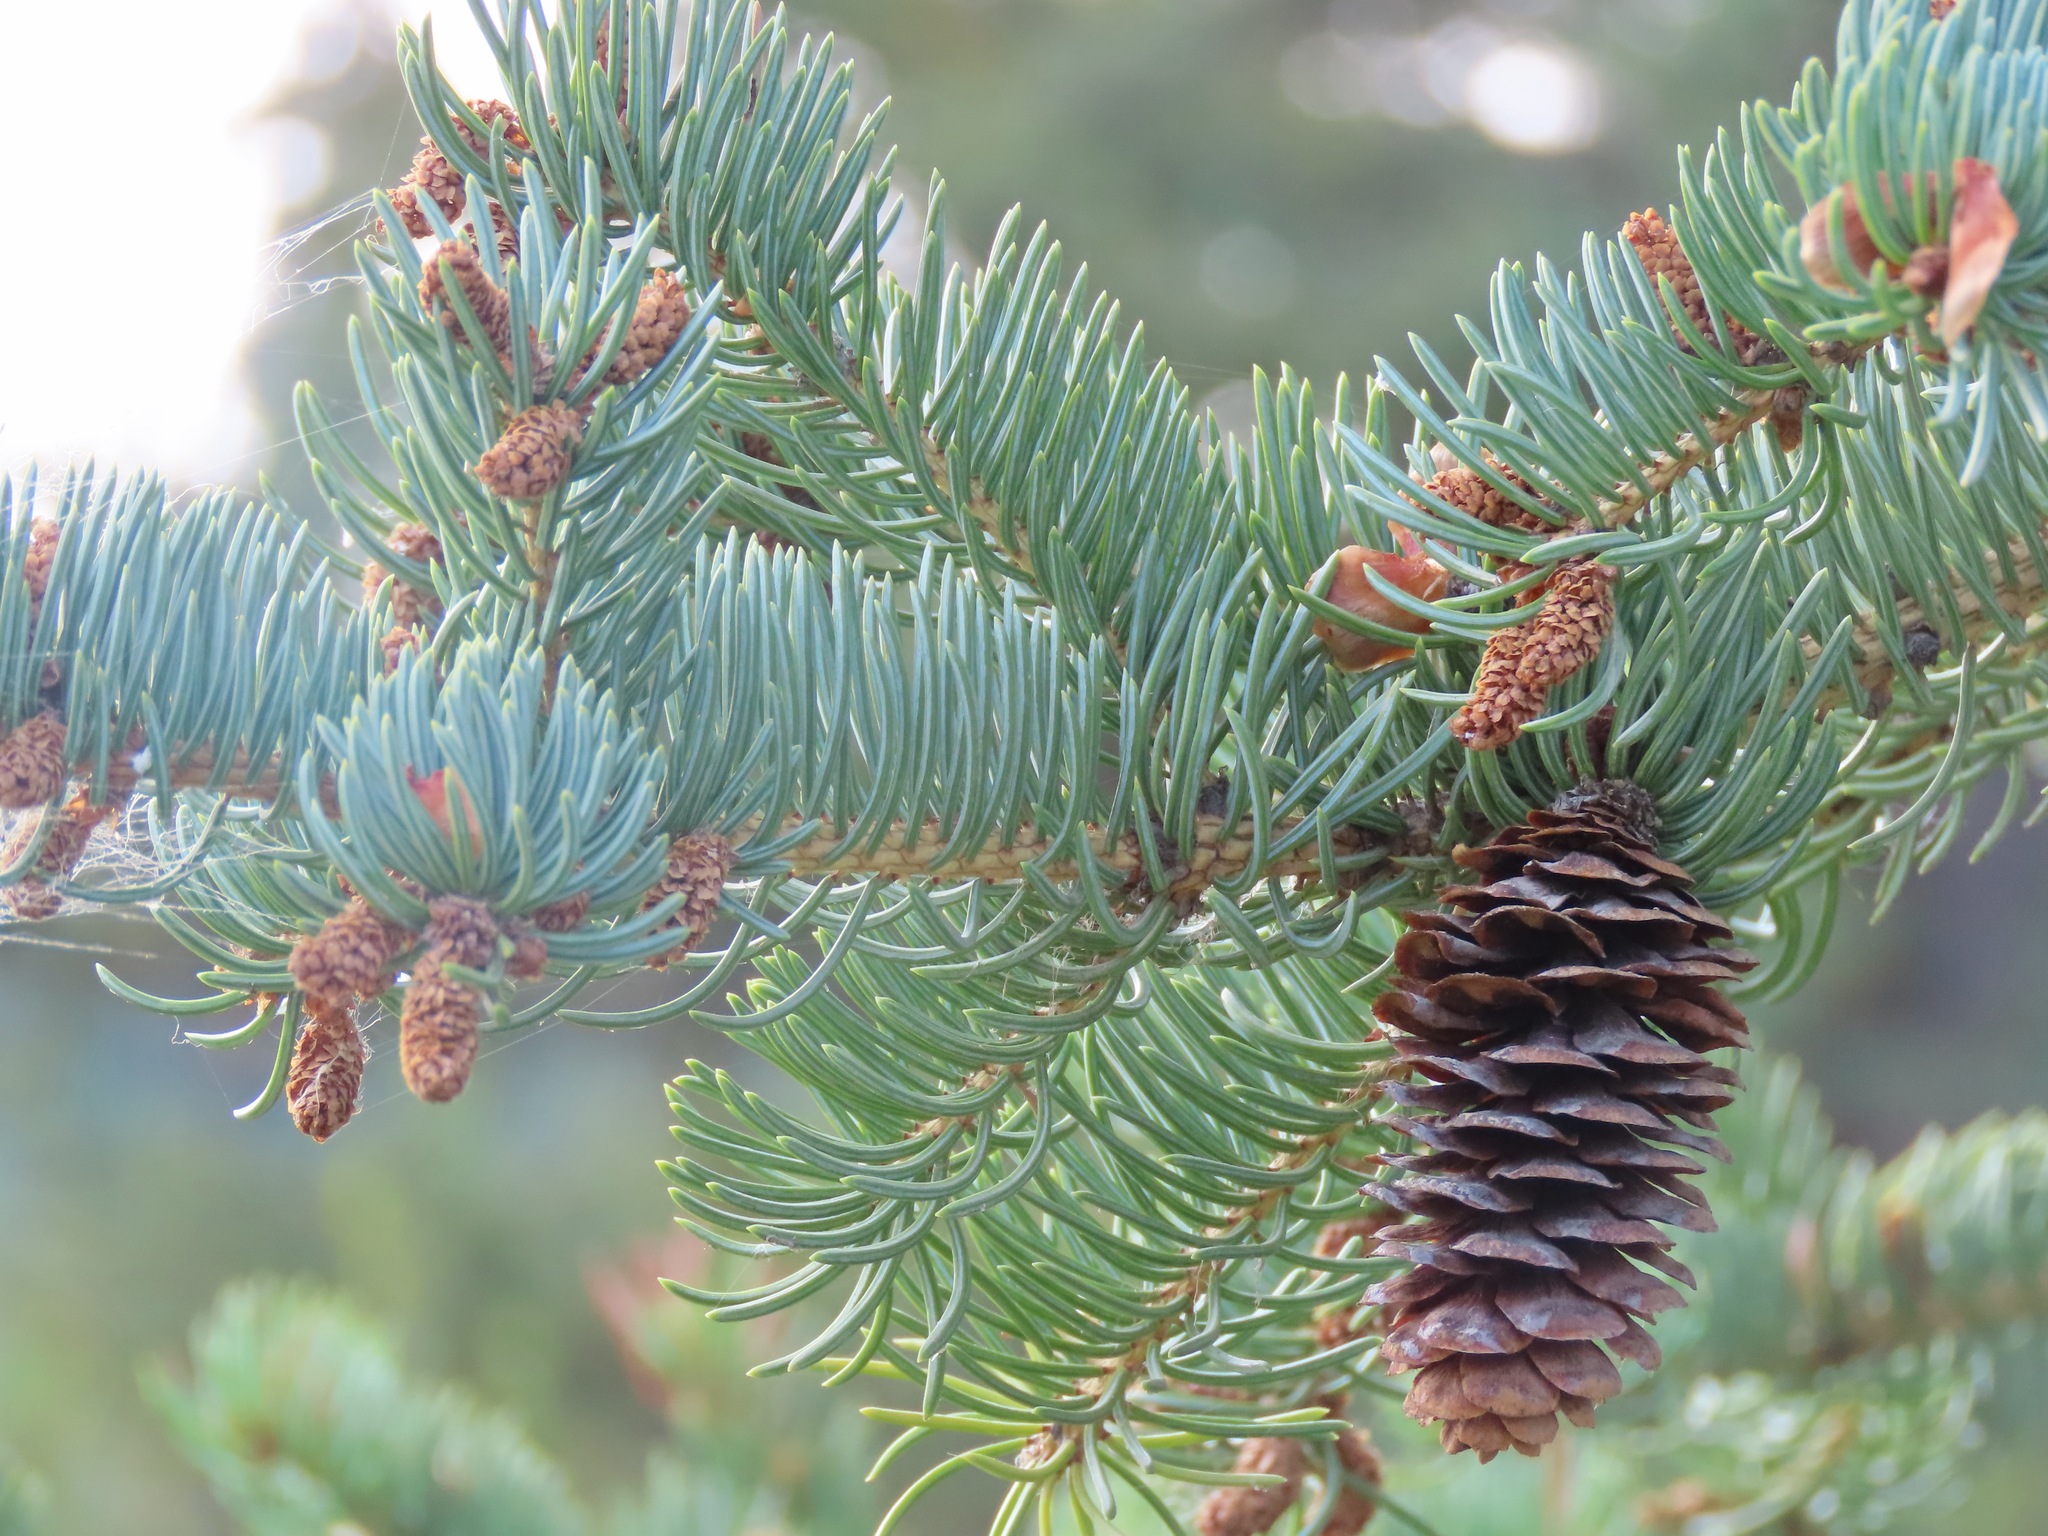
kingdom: Plantae
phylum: Tracheophyta
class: Pinopsida
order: Pinales
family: Pinaceae
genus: Picea
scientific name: Picea glauca
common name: White spruce
